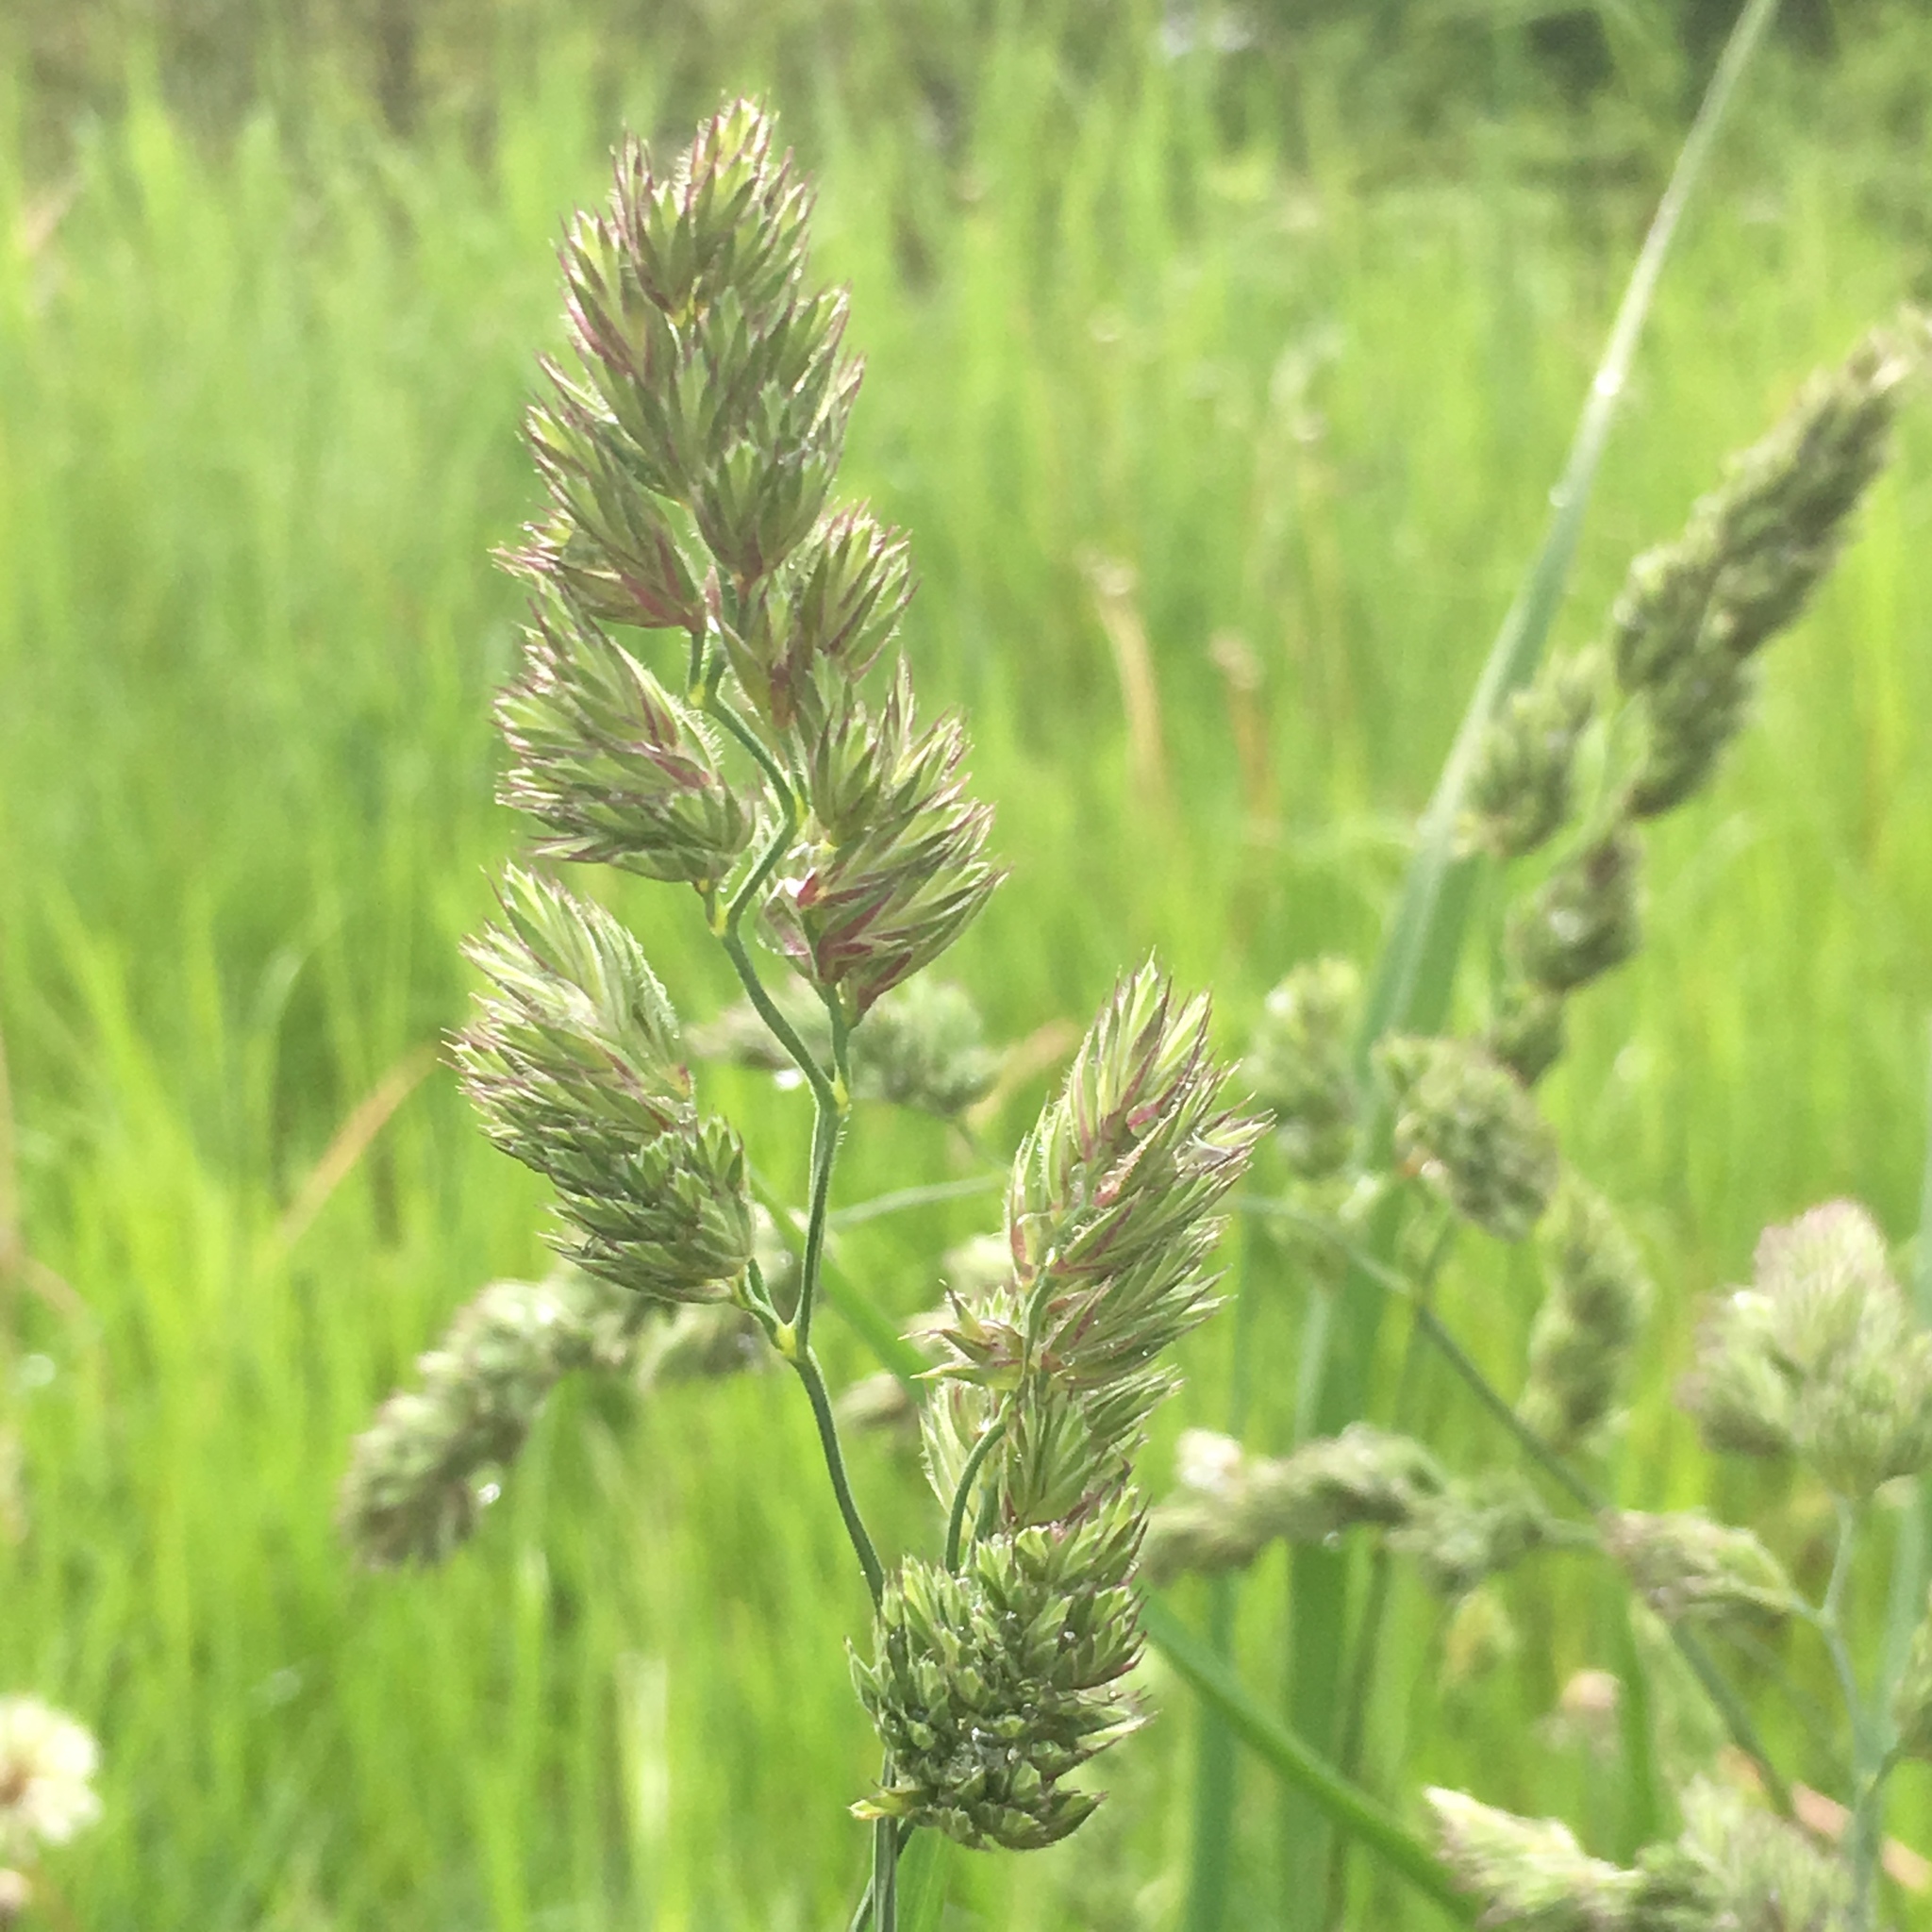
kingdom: Plantae
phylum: Tracheophyta
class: Liliopsida
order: Poales
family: Poaceae
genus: Dactylis
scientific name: Dactylis glomerata
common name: Orchardgrass
